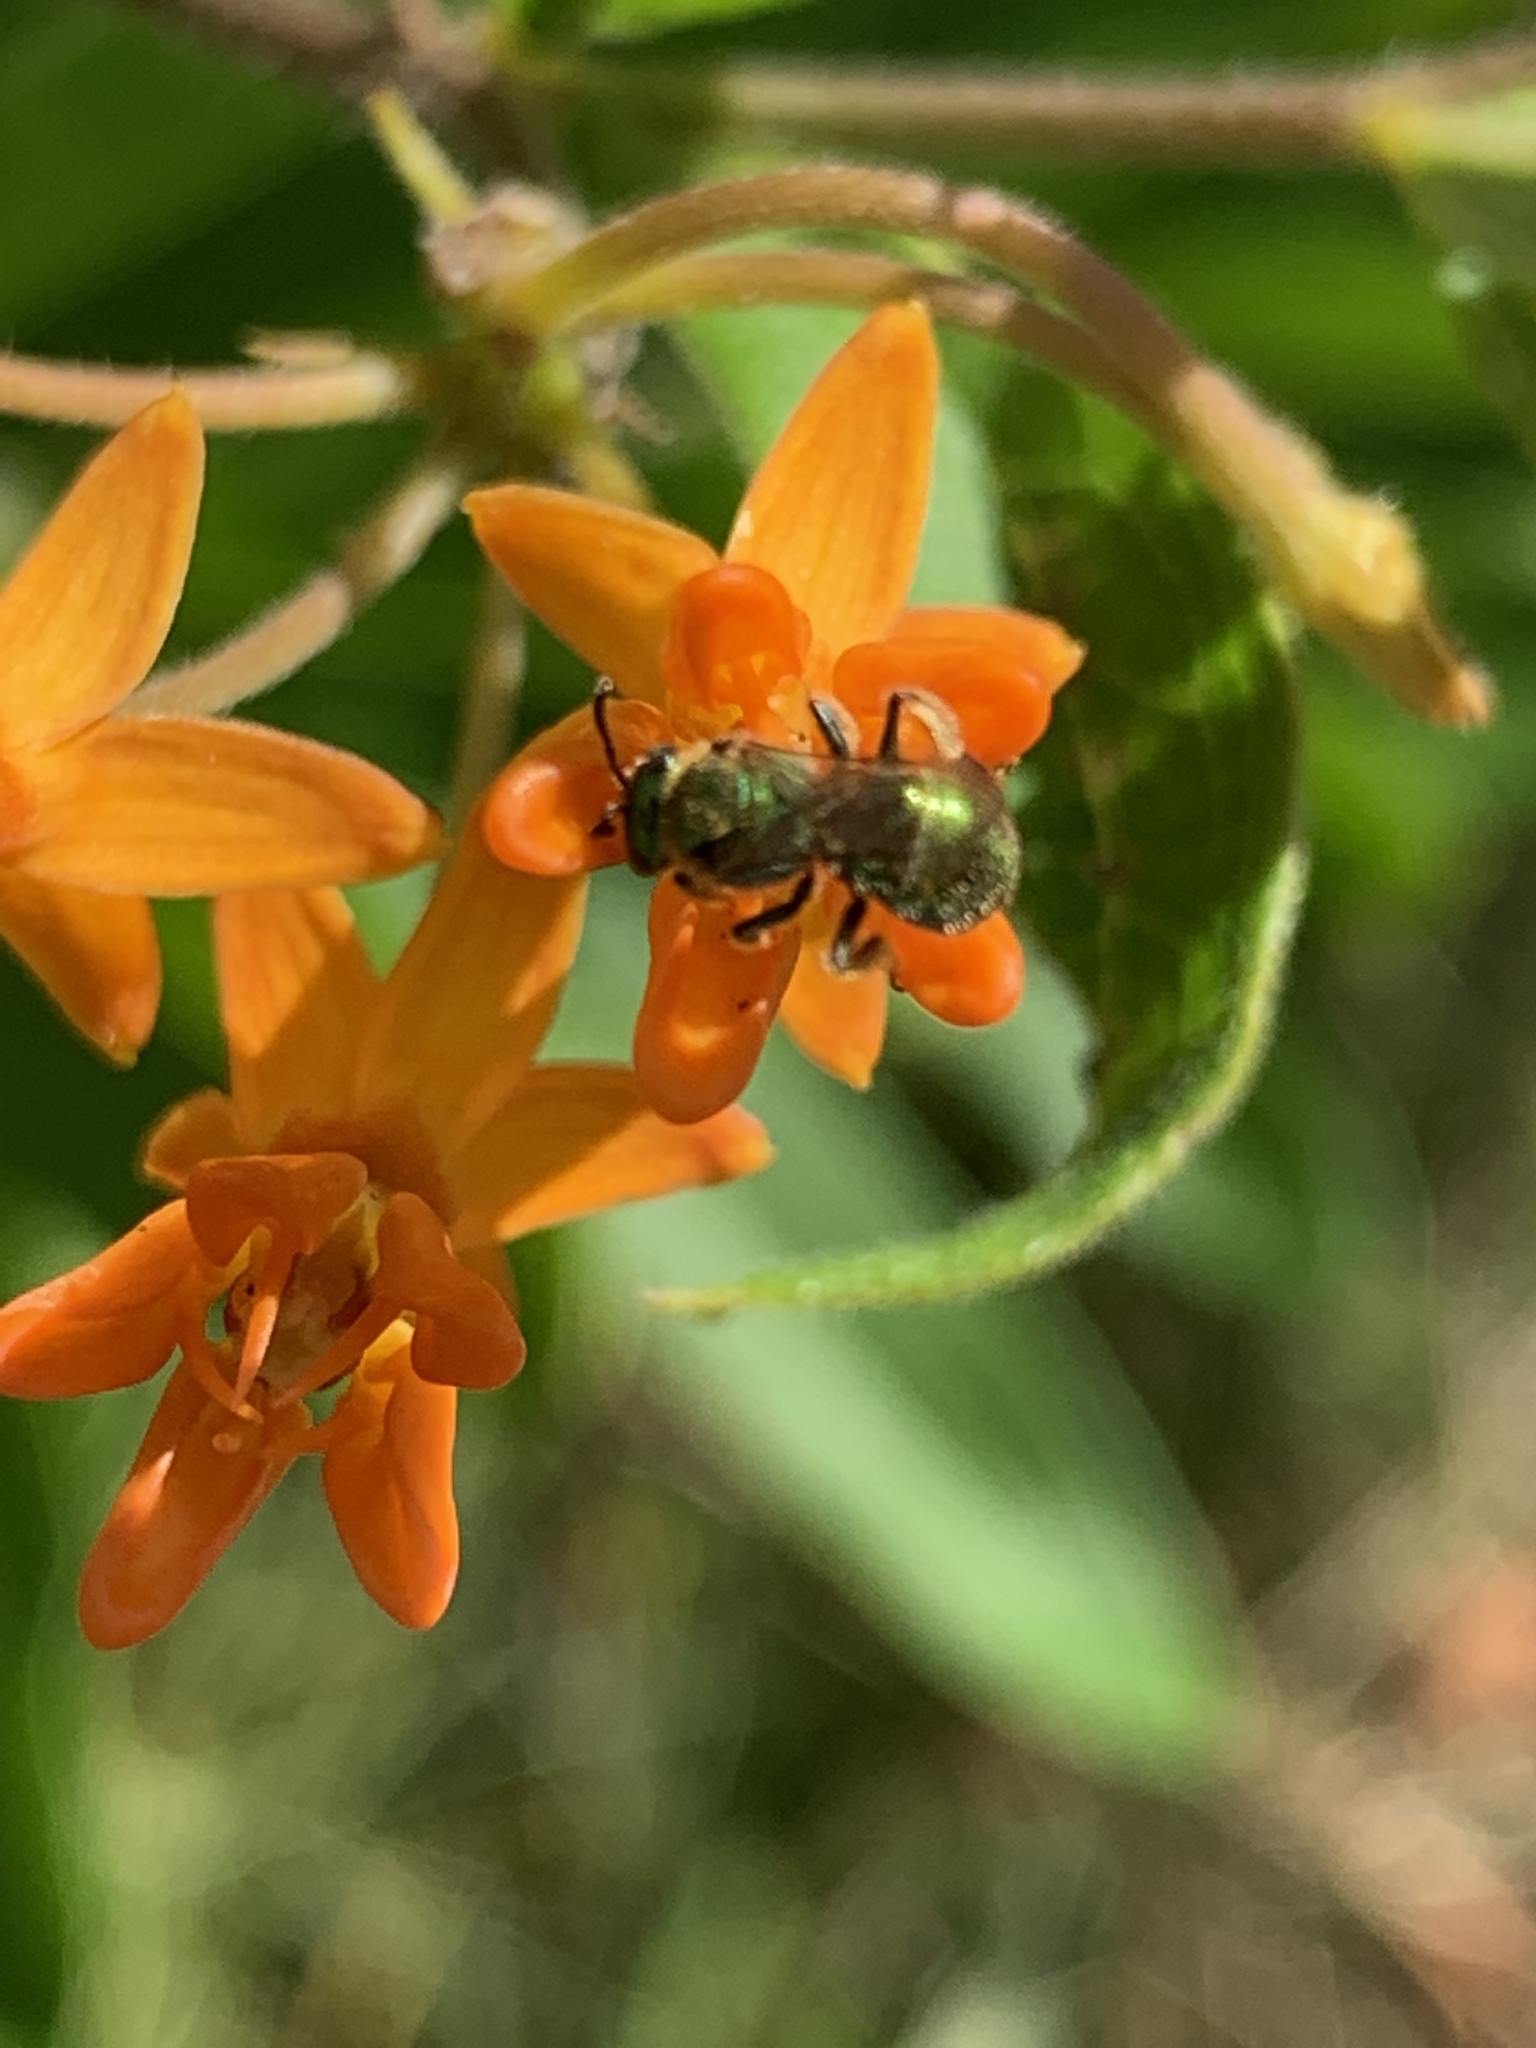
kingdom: Animalia
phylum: Arthropoda
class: Insecta
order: Hymenoptera
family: Halictidae
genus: Augochlorella
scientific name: Augochlorella aurata
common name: Golden sweat bee
